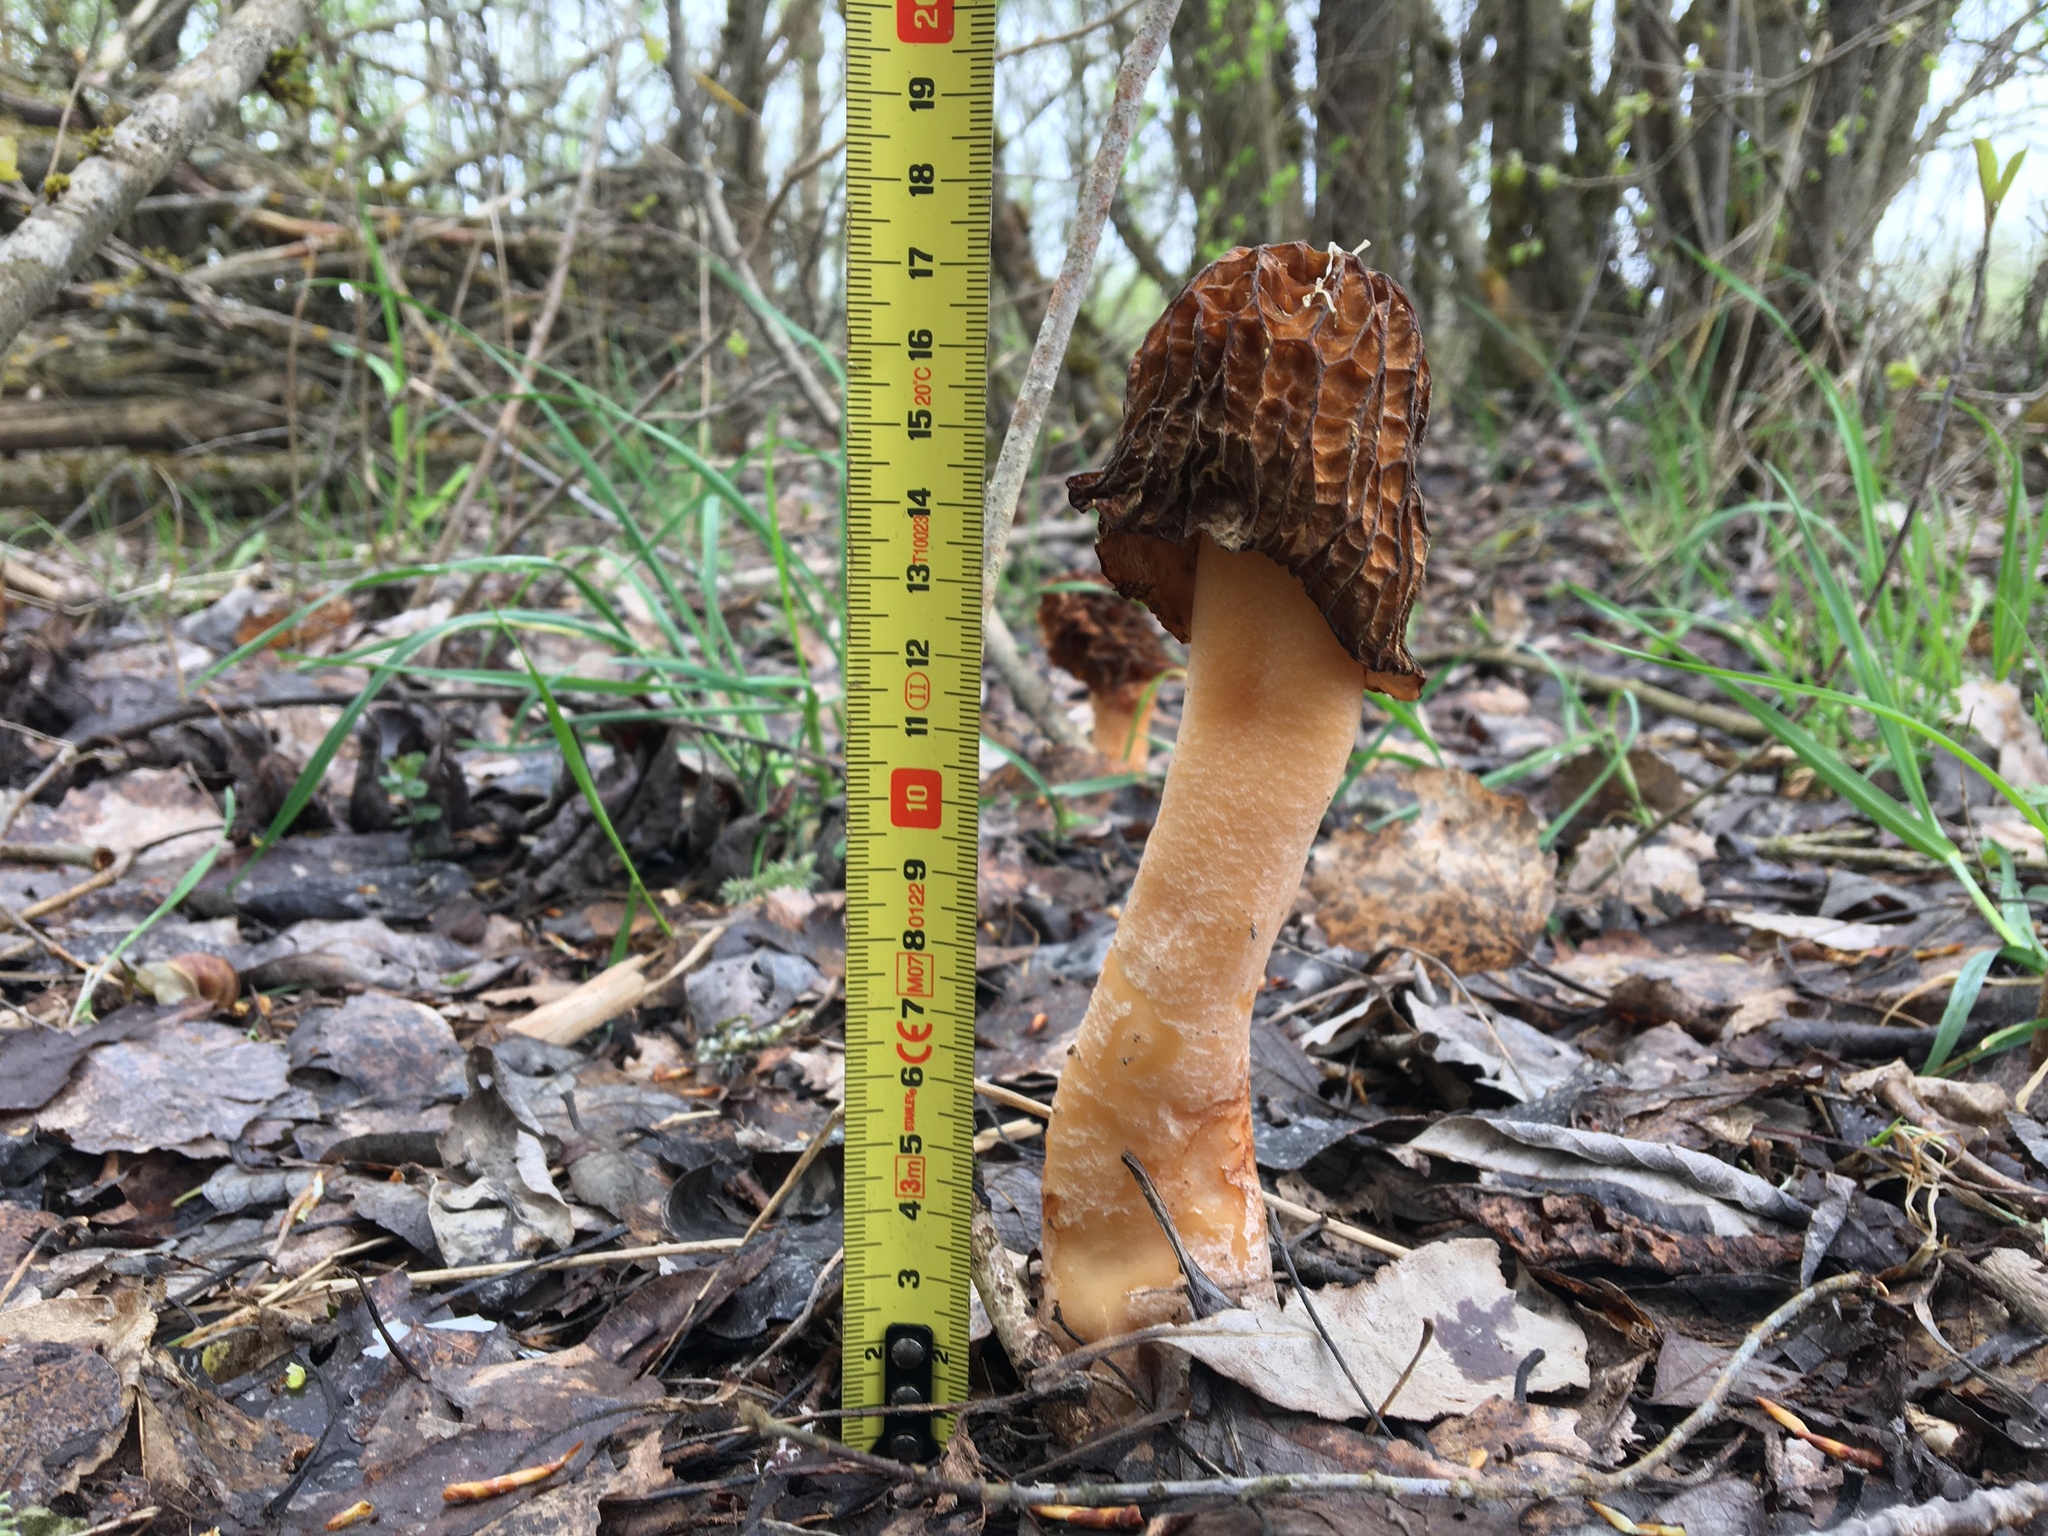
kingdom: Fungi
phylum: Ascomycota
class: Pezizomycetes
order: Pezizales
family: Morchellaceae
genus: Verpa
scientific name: Verpa bohemica
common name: Wrinkled thimble morel
